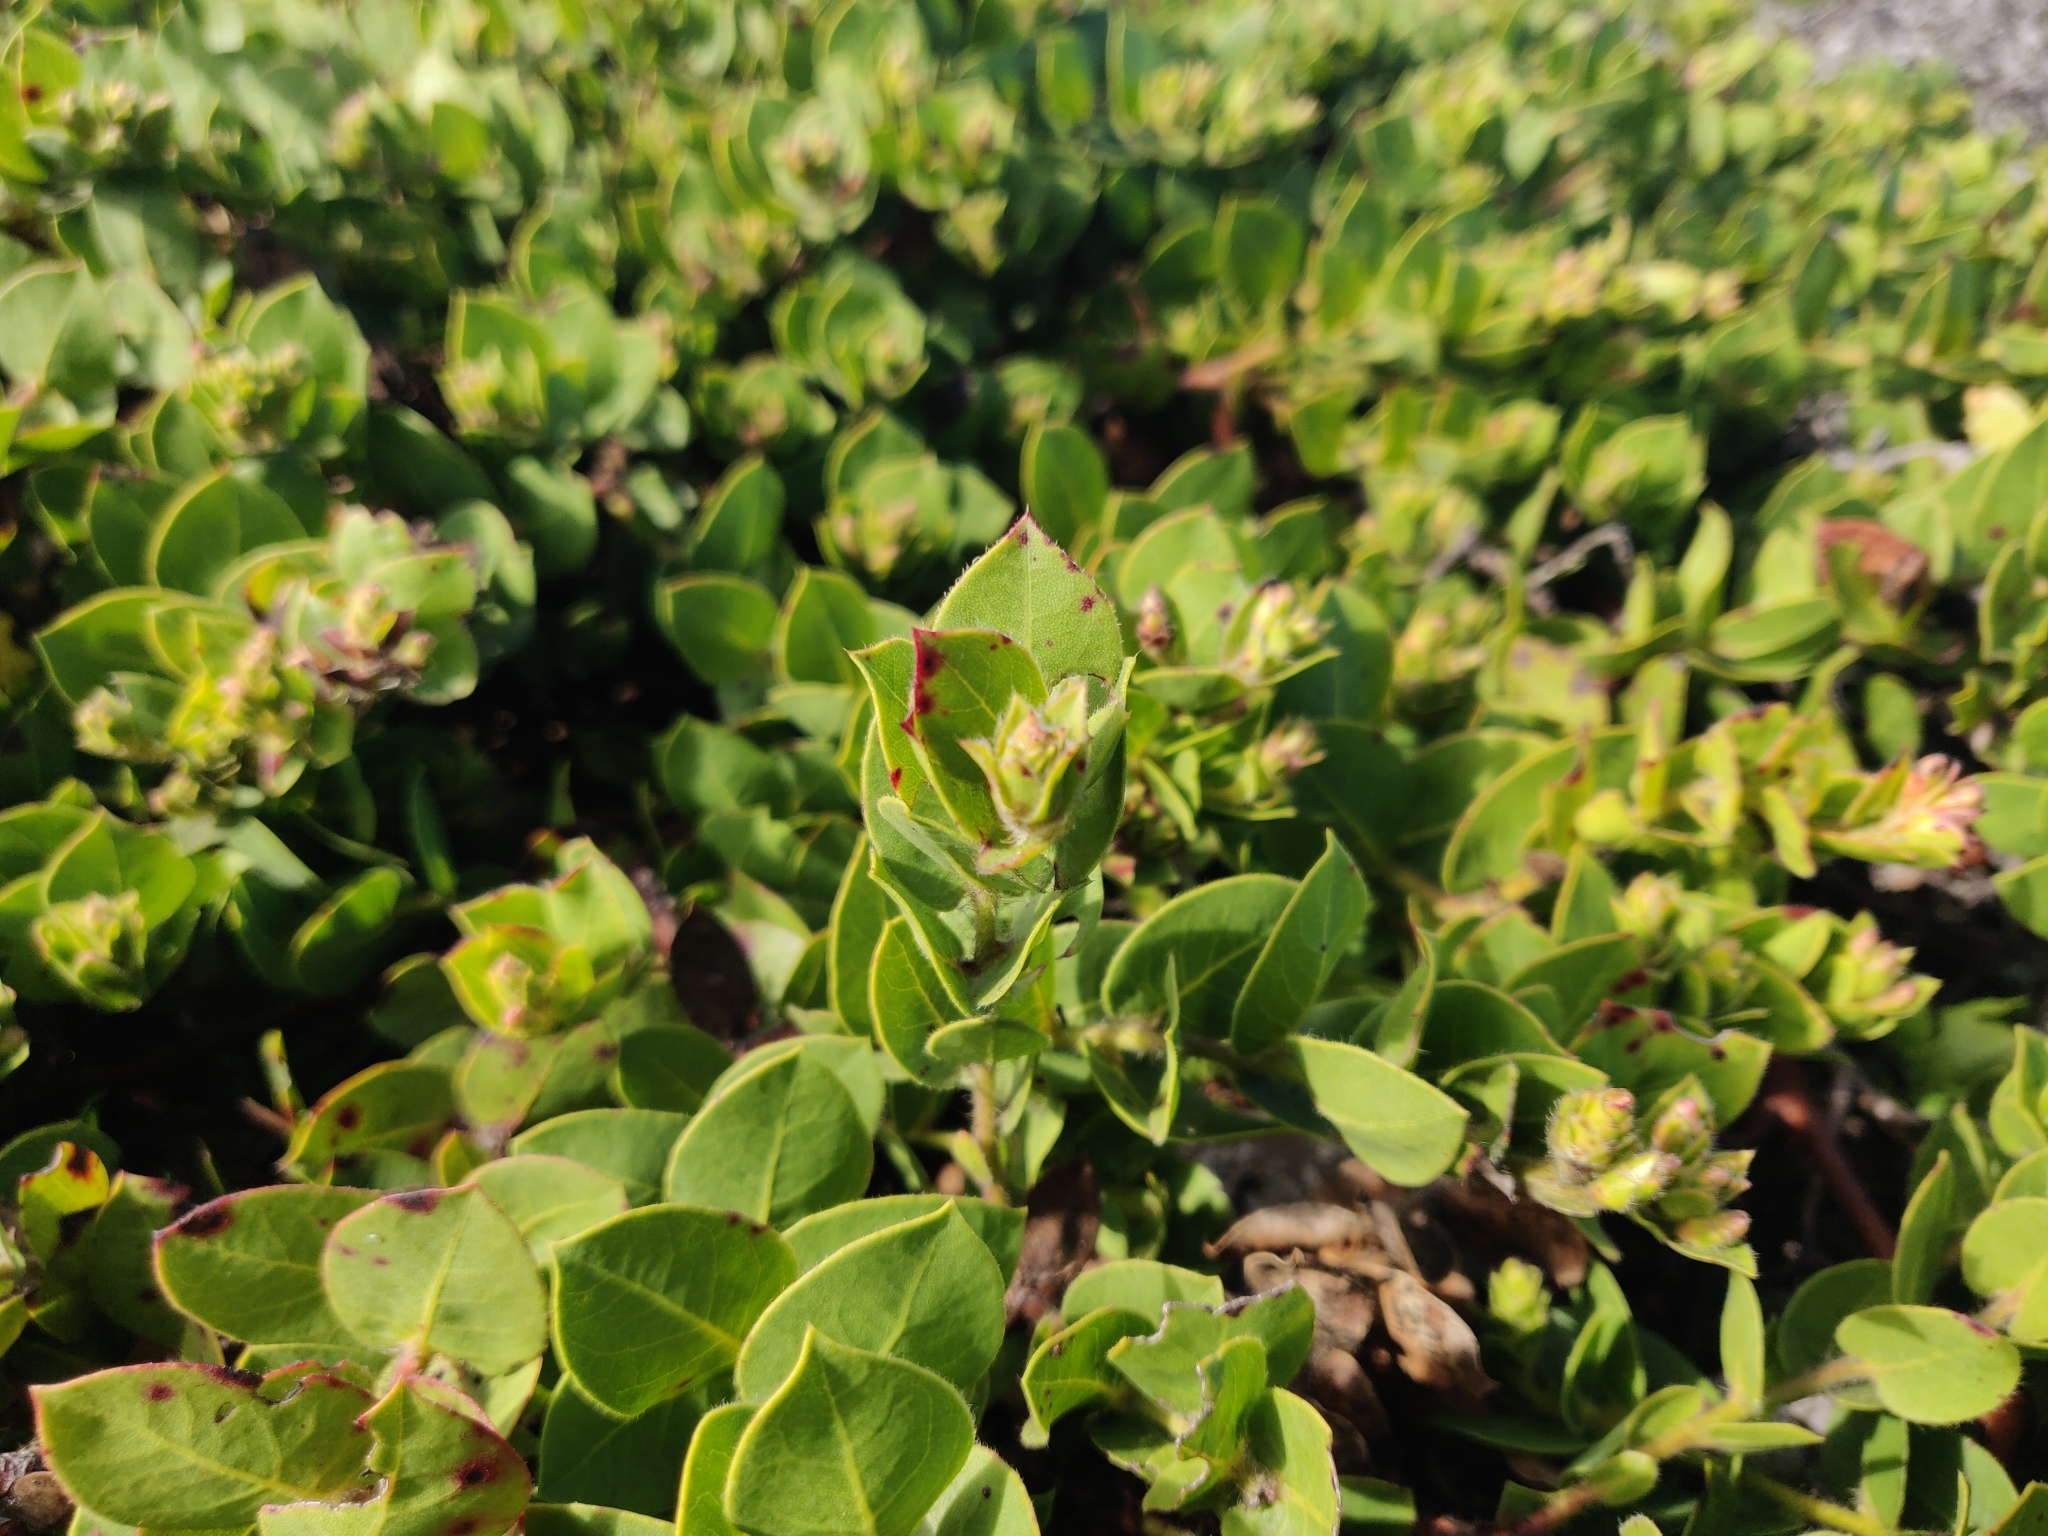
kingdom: Plantae
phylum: Tracheophyta
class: Magnoliopsida
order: Ericales
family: Ericaceae
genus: Arctostaphylos
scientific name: Arctostaphylos imbricata
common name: San bruno mountain manzanita
